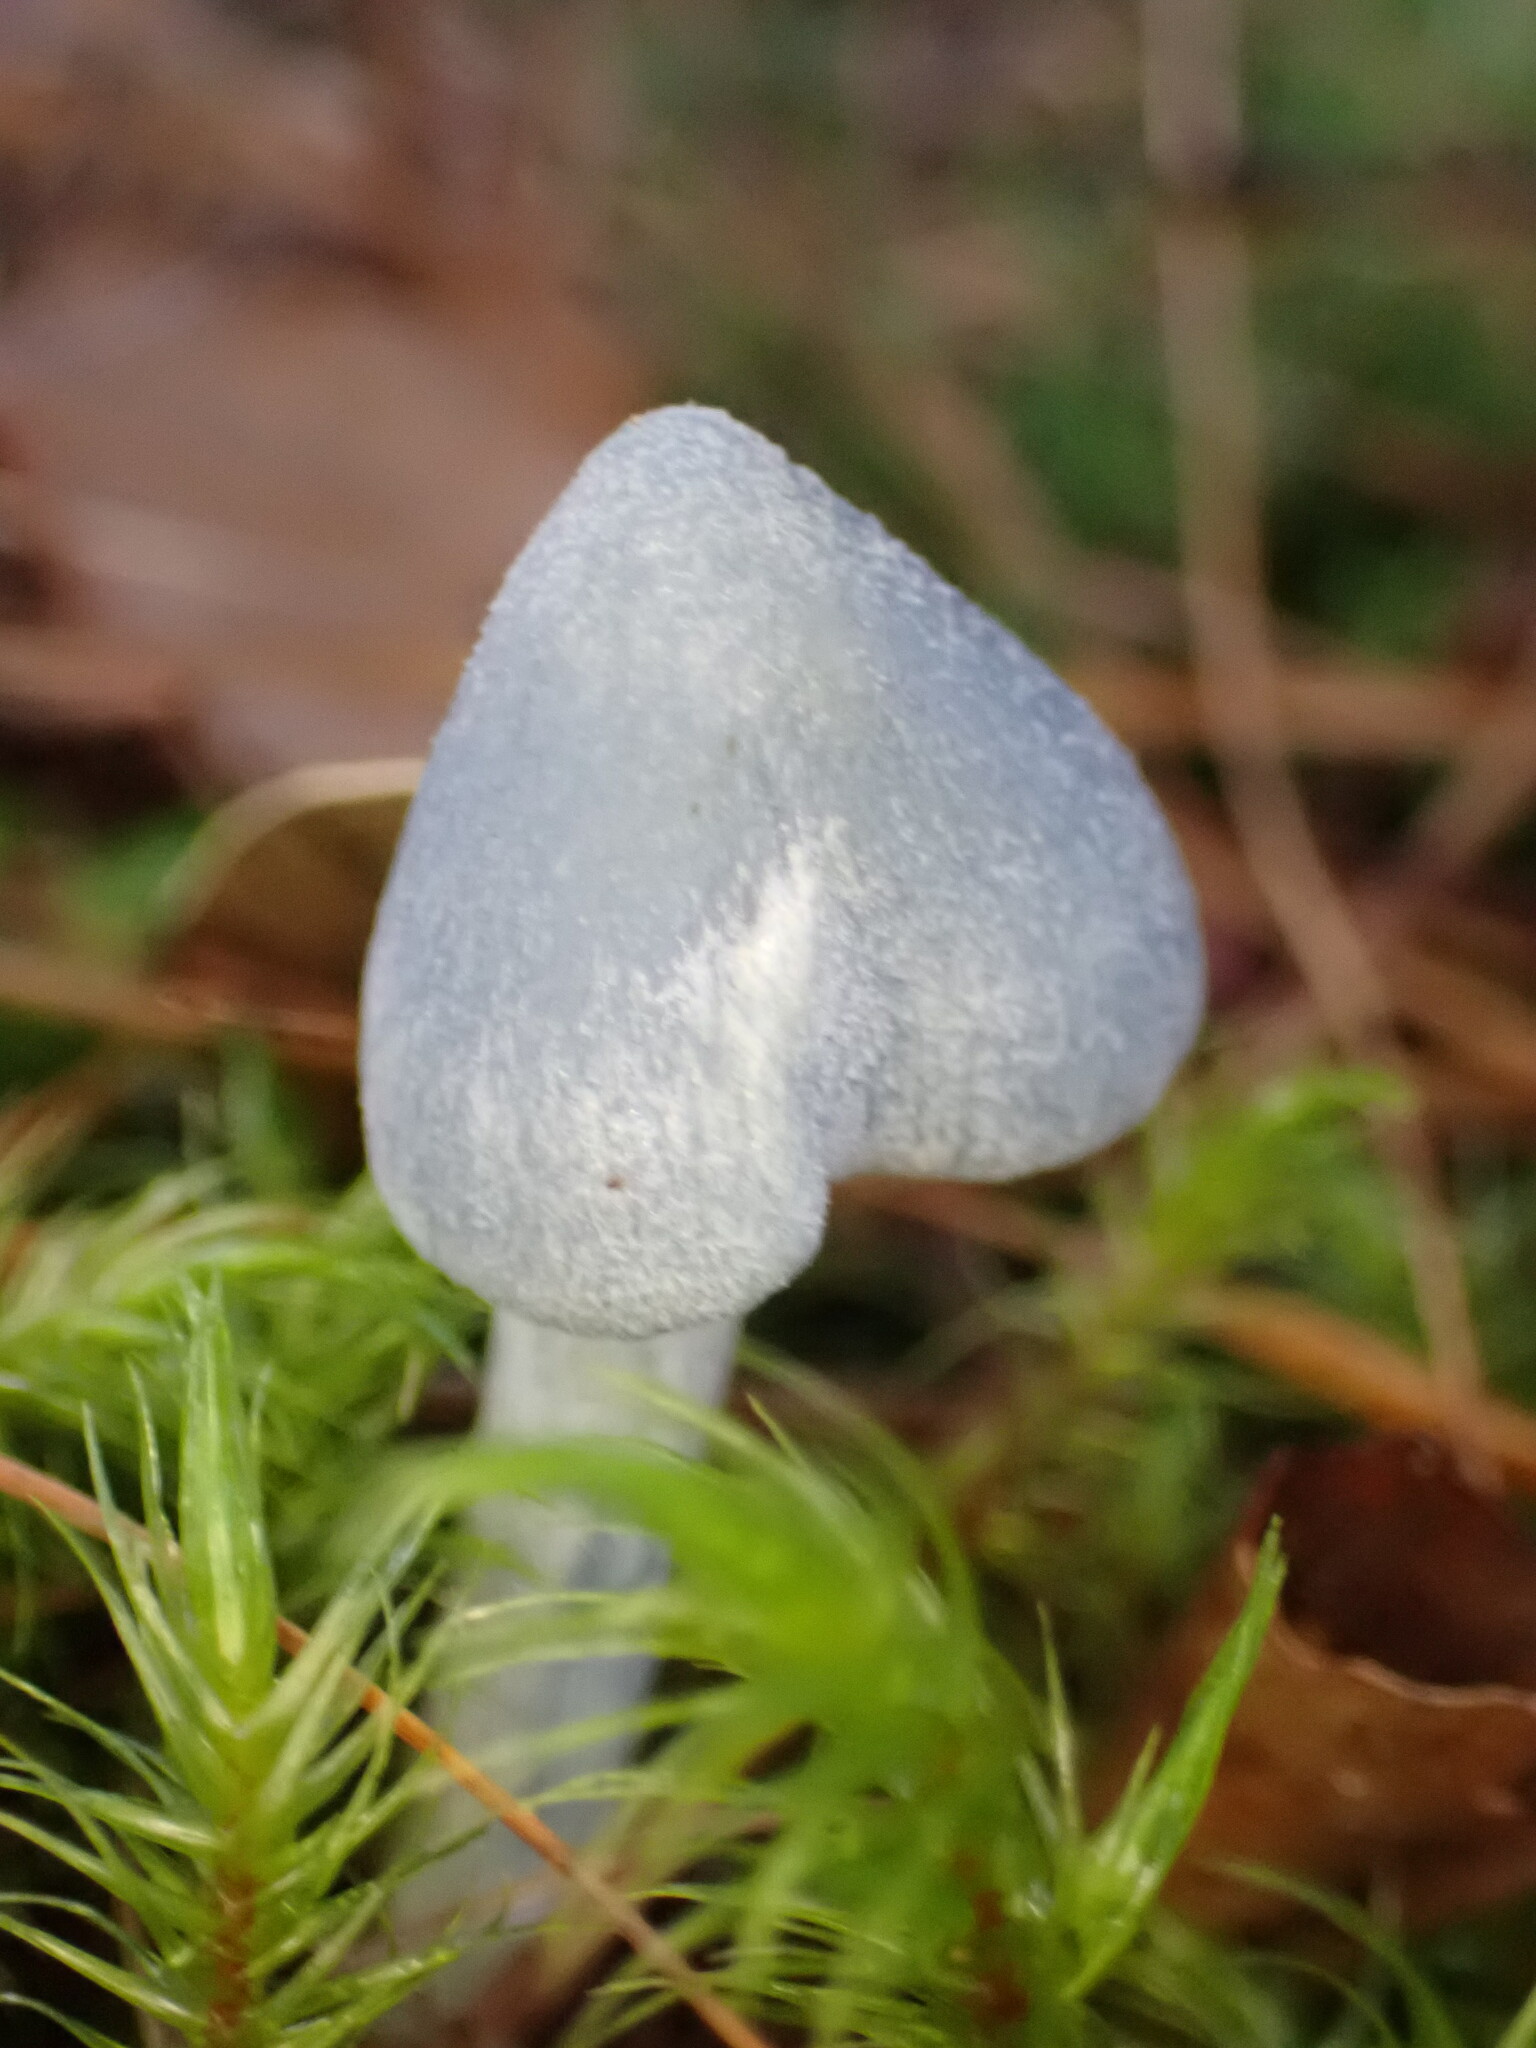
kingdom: Fungi
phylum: Basidiomycota
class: Agaricomycetes
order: Agaricales
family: Entolomataceae
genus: Entoloma
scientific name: Entoloma canoconicum
